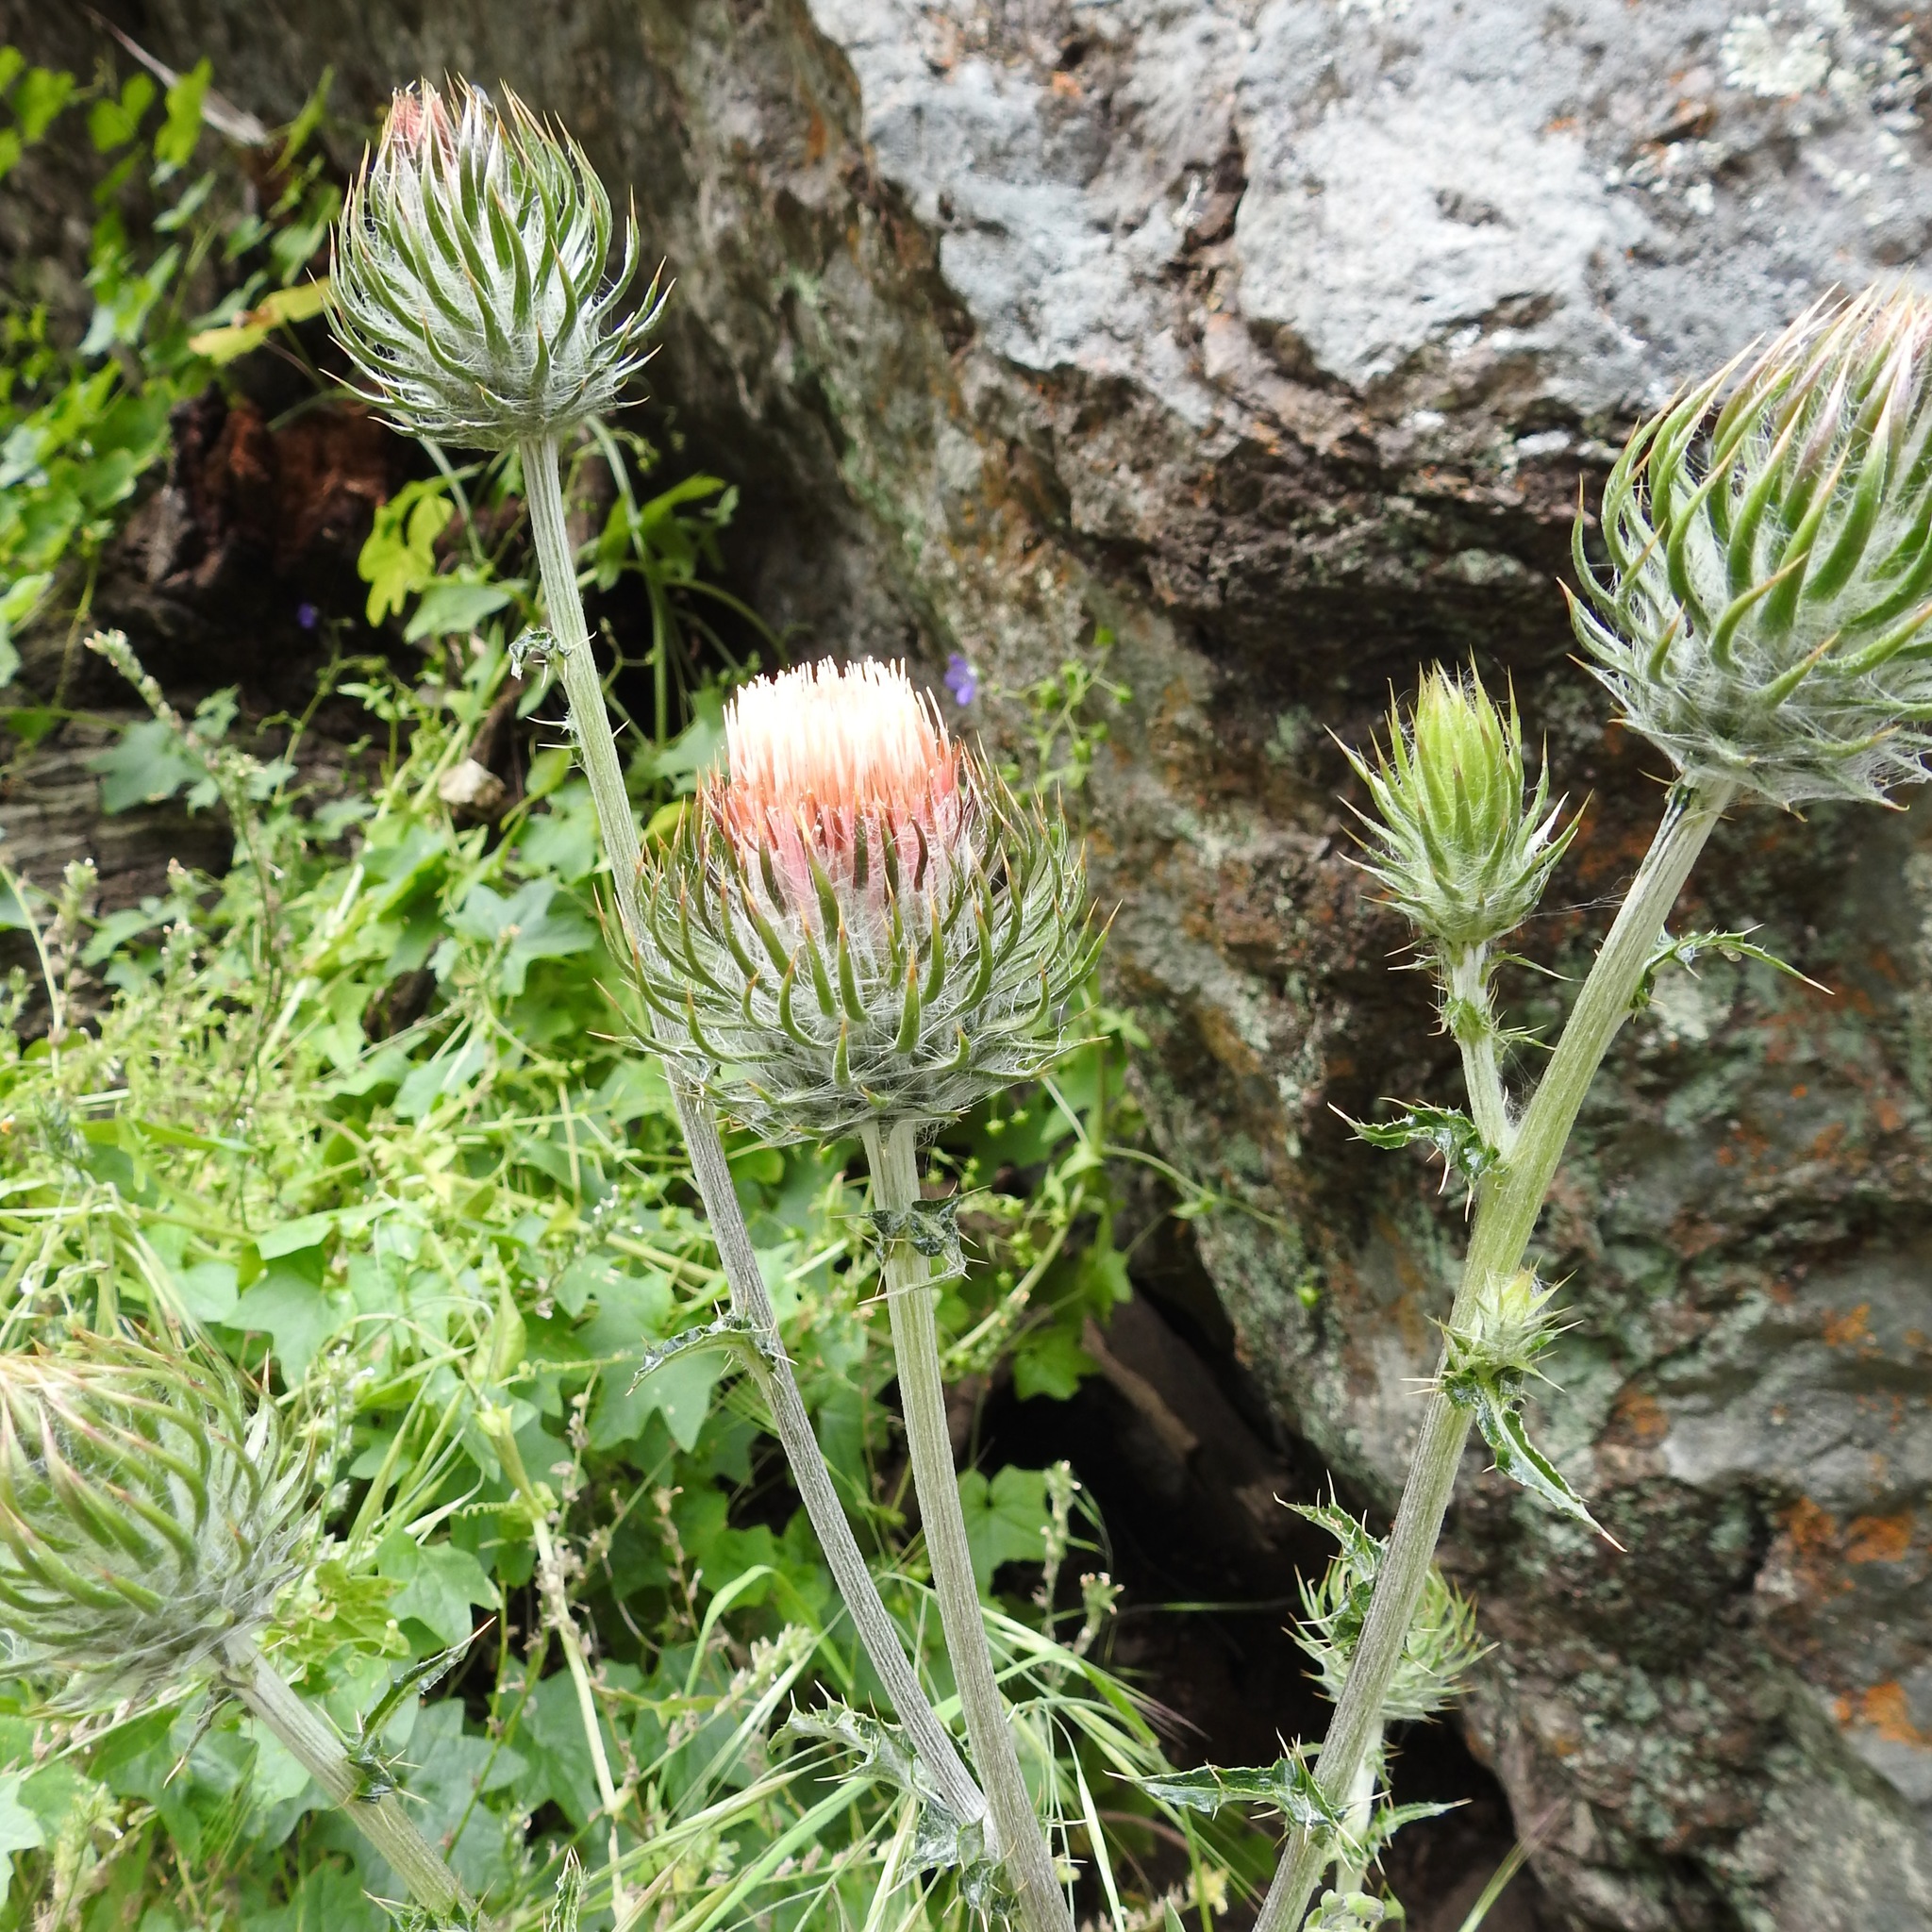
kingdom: Plantae
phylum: Tracheophyta
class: Magnoliopsida
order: Asterales
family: Asteraceae
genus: Cirsium
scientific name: Cirsium occidentale
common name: Western thistle
